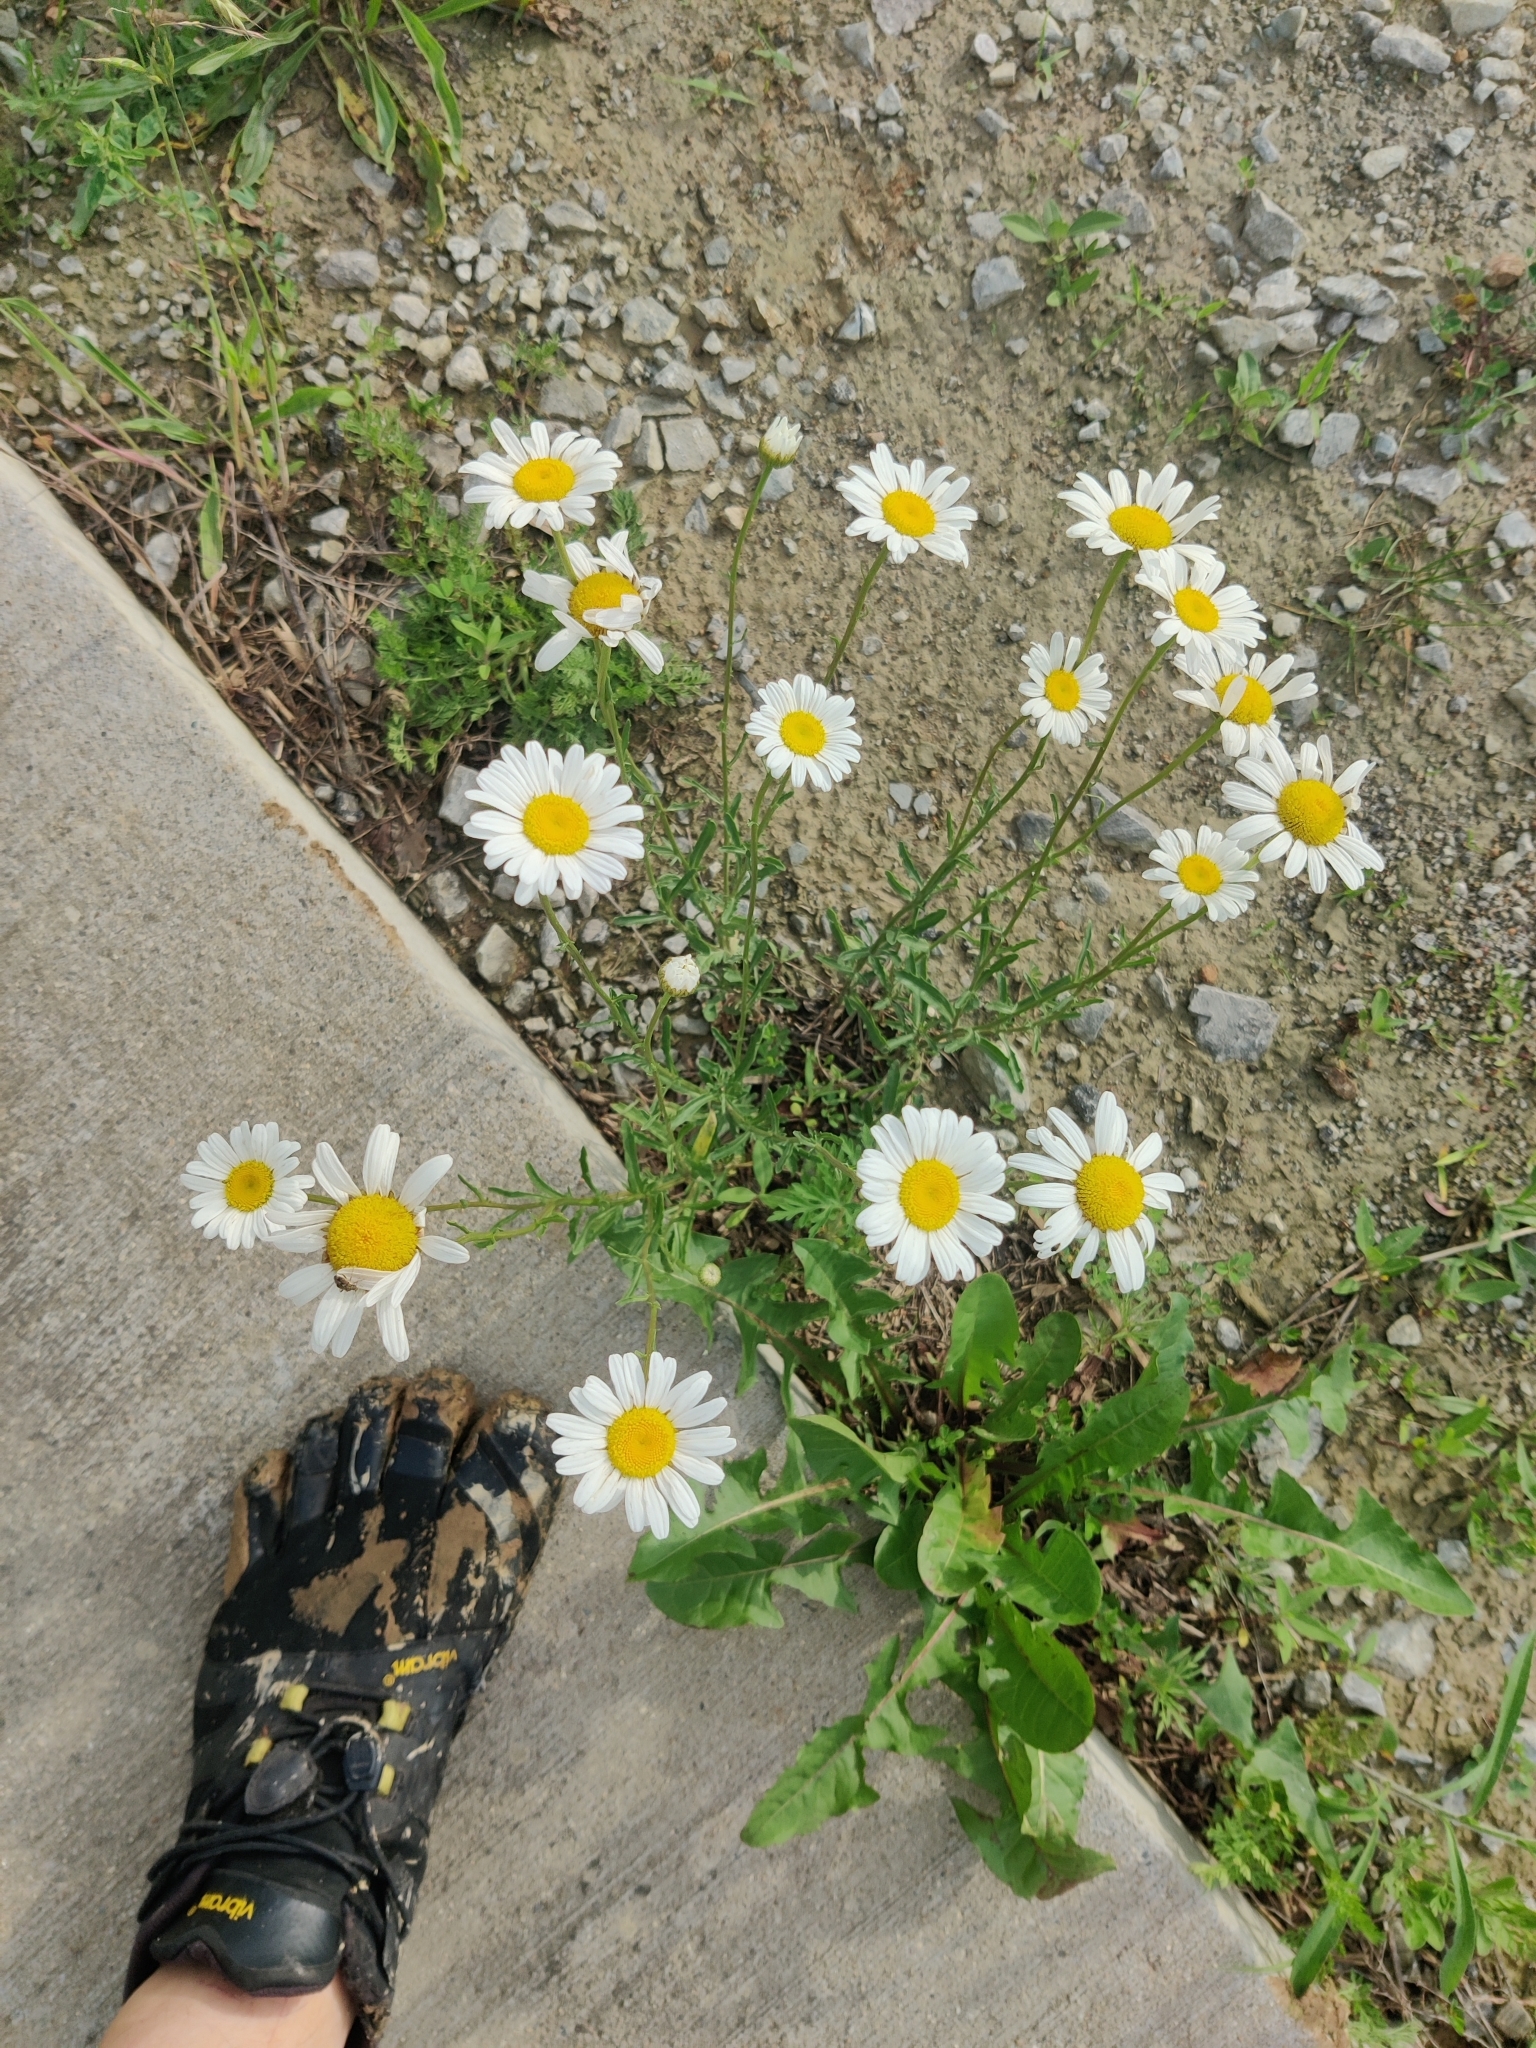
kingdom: Plantae
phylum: Tracheophyta
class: Magnoliopsida
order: Asterales
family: Asteraceae
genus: Leucanthemum
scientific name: Leucanthemum vulgare
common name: Oxeye daisy
